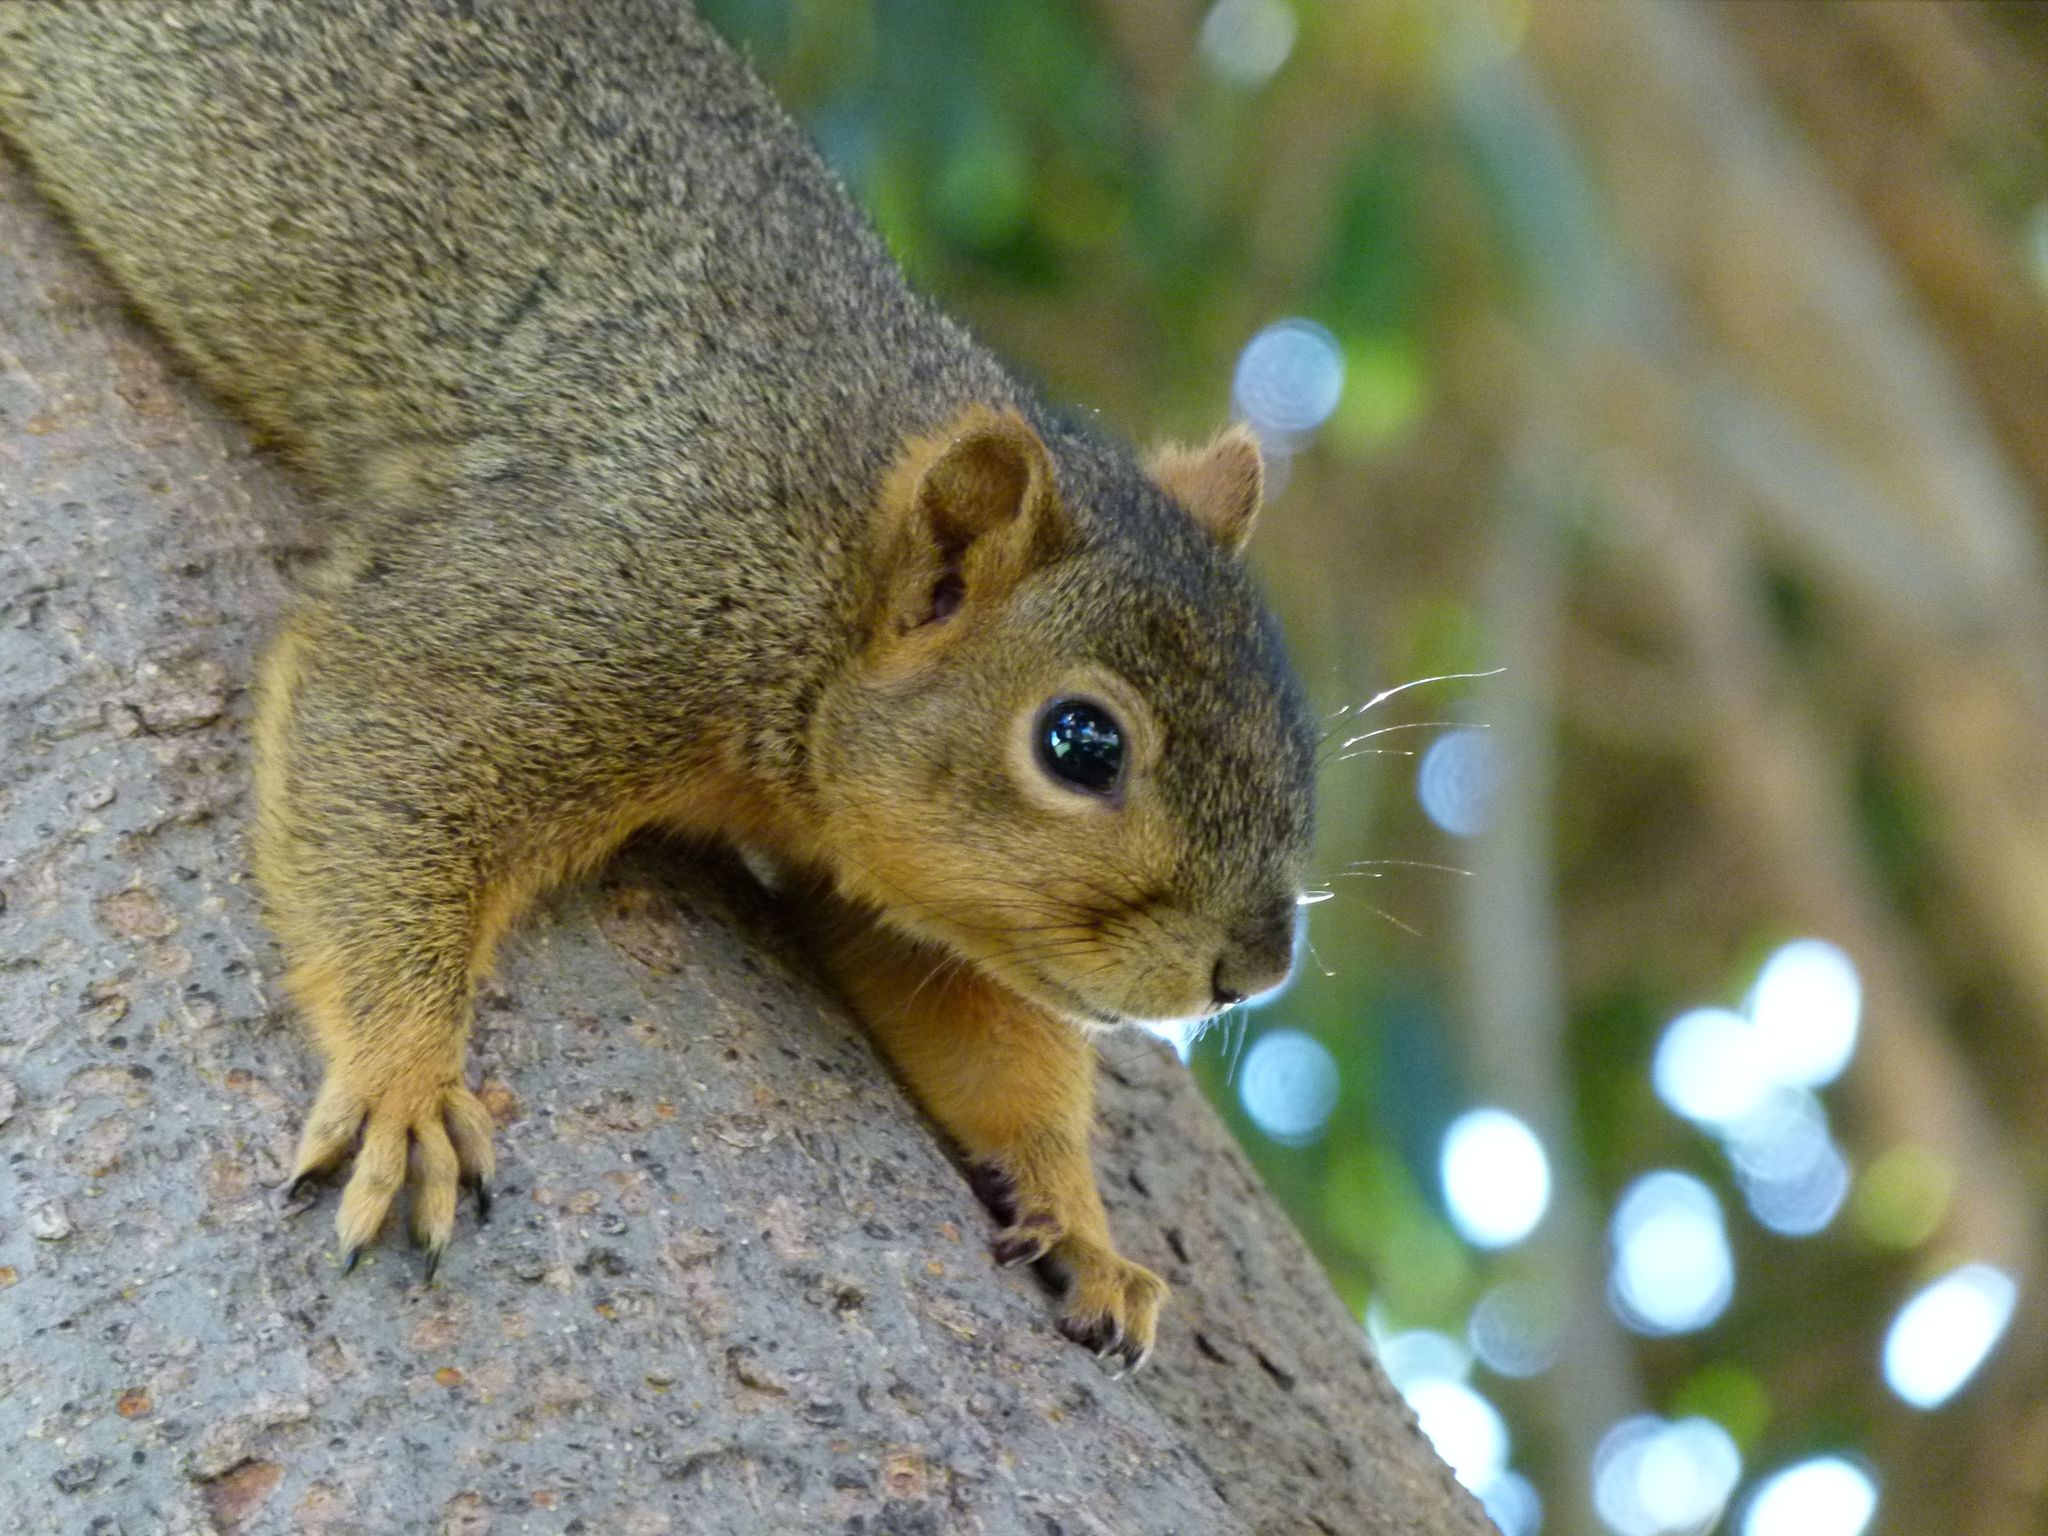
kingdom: Animalia
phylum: Chordata
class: Mammalia
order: Rodentia
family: Sciuridae
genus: Sciurus
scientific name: Sciurus niger
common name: Fox squirrel
